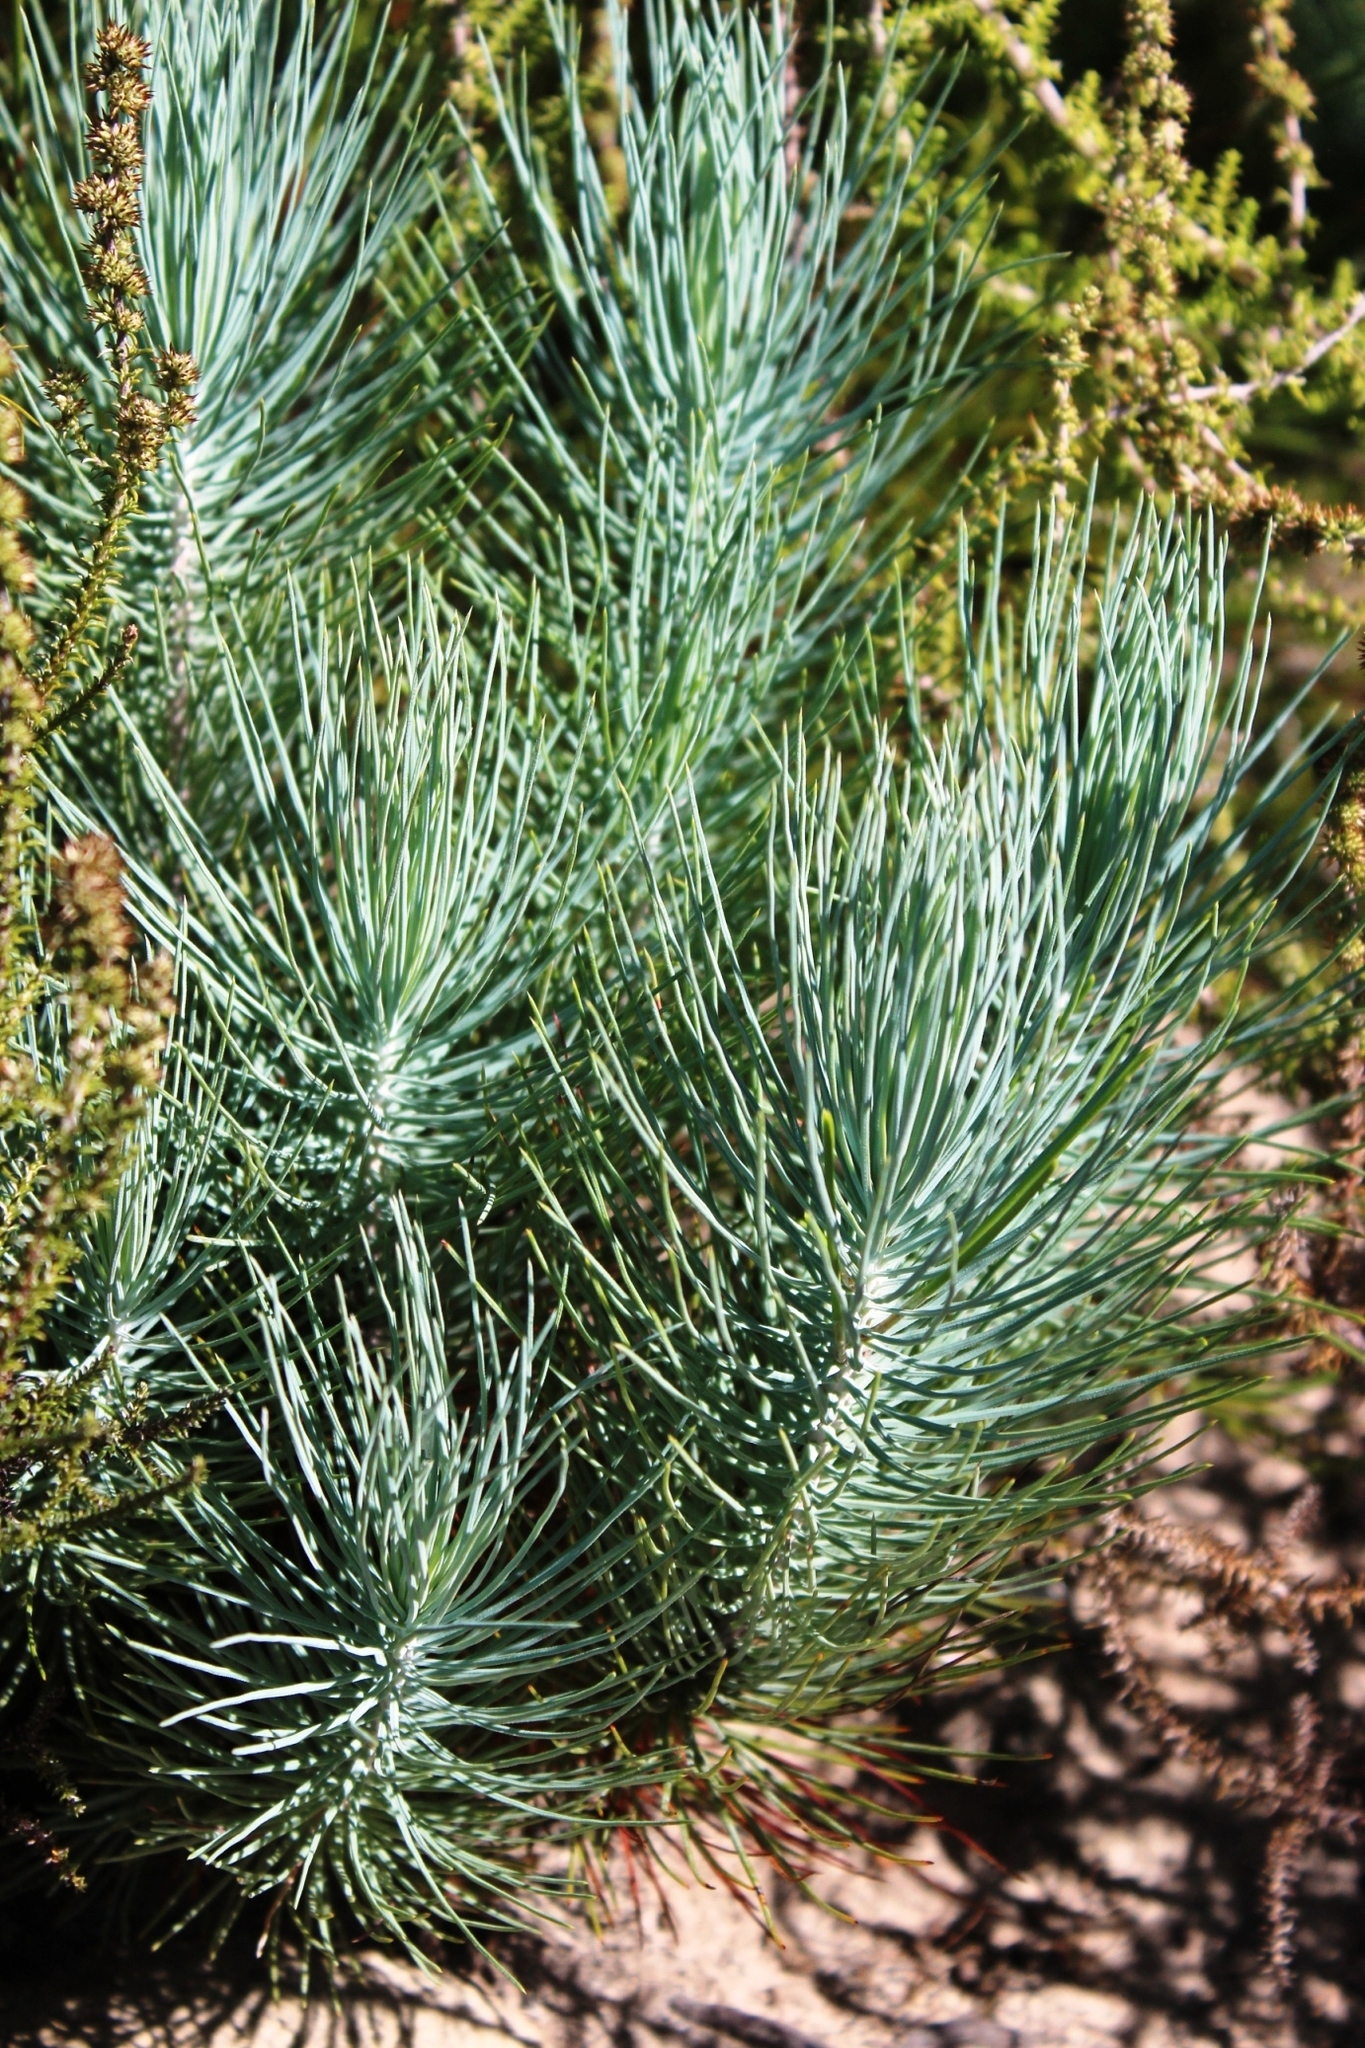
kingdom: Plantae
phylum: Tracheophyta
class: Pinopsida
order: Pinales
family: Pinaceae
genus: Pinus
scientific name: Pinus canariensis
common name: Canary islands pine
